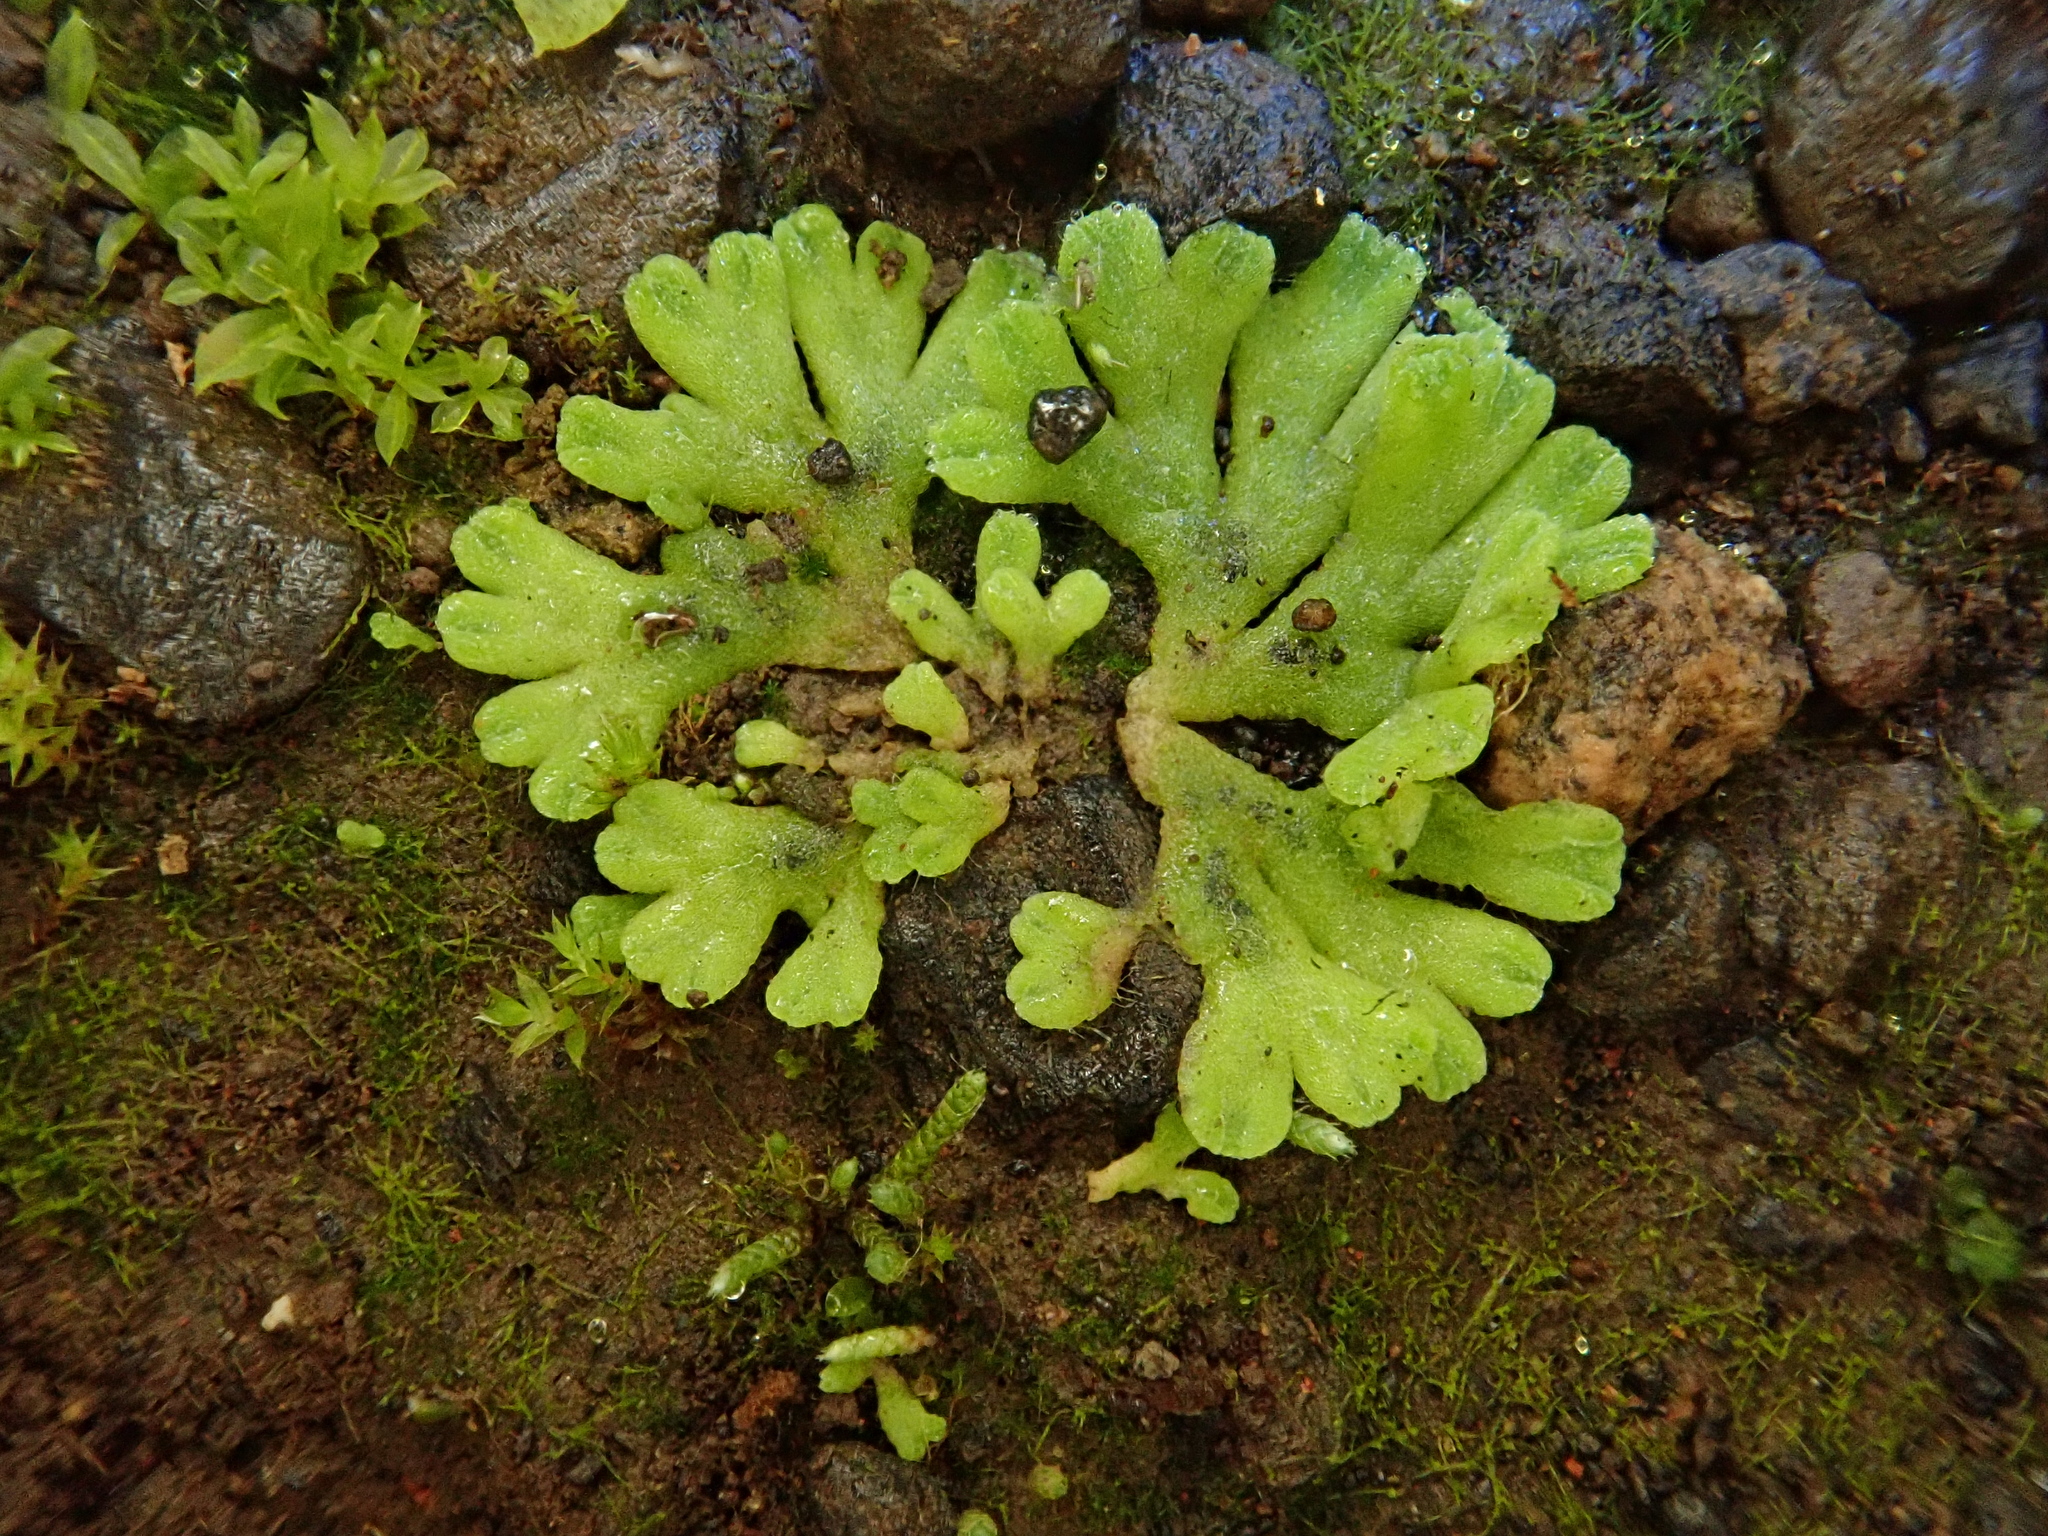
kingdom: Plantae
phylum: Marchantiophyta
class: Marchantiopsida
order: Marchantiales
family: Ricciaceae
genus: Riccia
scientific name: Riccia glauca
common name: Glaucous crystalwort
